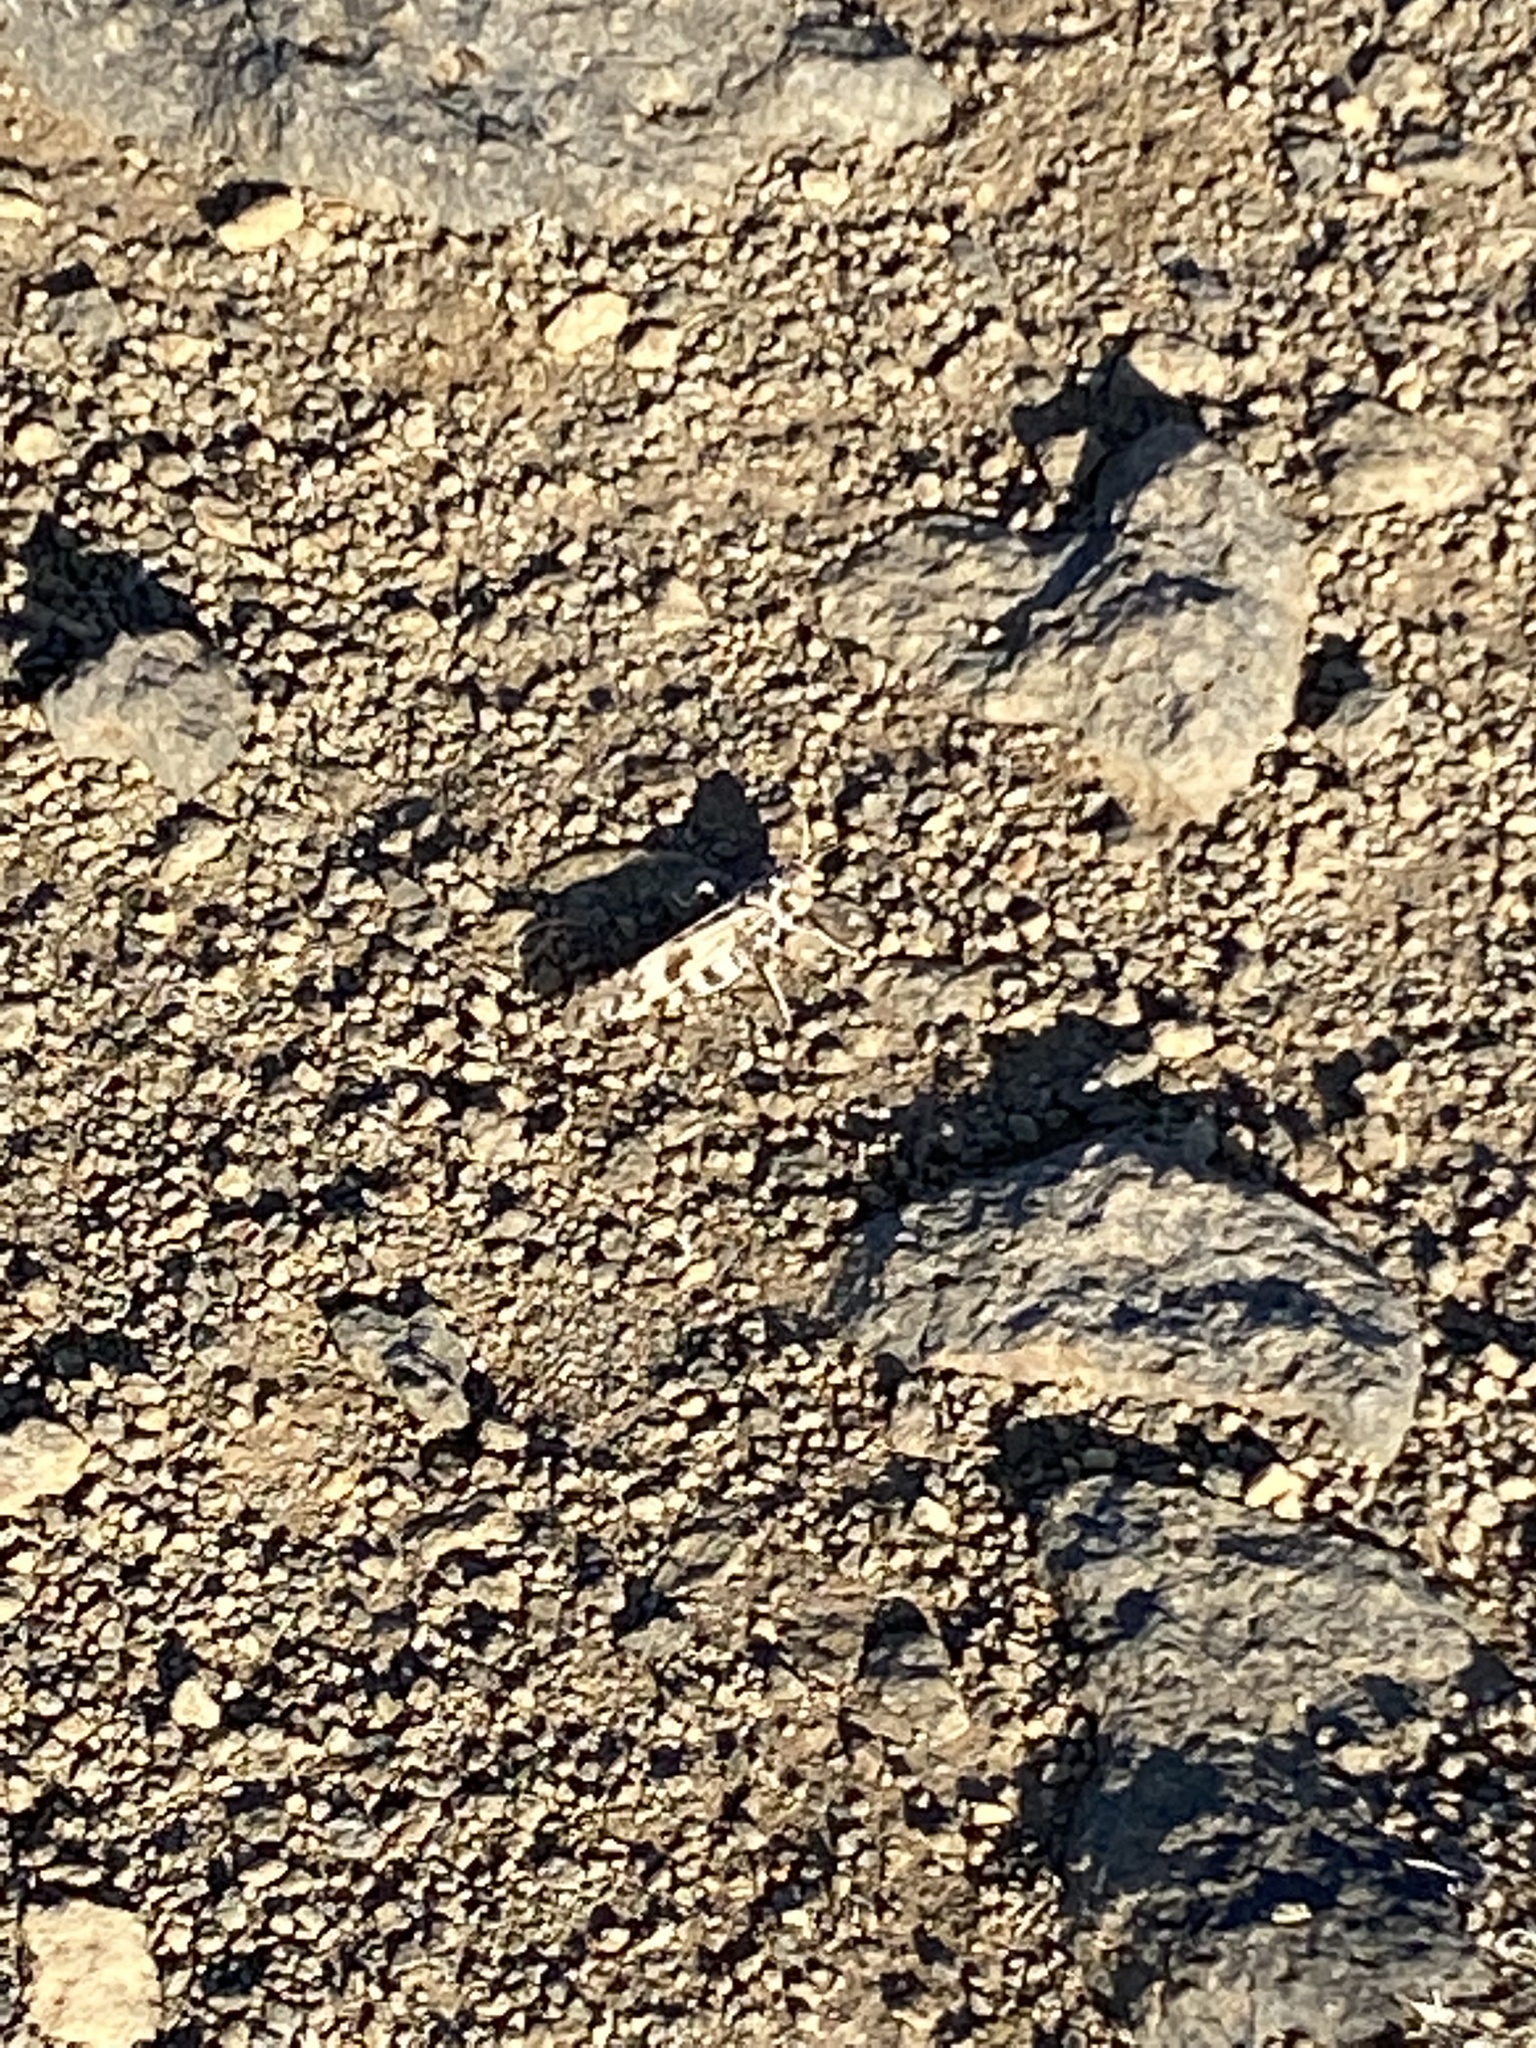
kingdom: Animalia
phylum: Arthropoda
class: Insecta
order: Orthoptera
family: Acrididae
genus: Dissosteira
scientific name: Dissosteira spurcata
